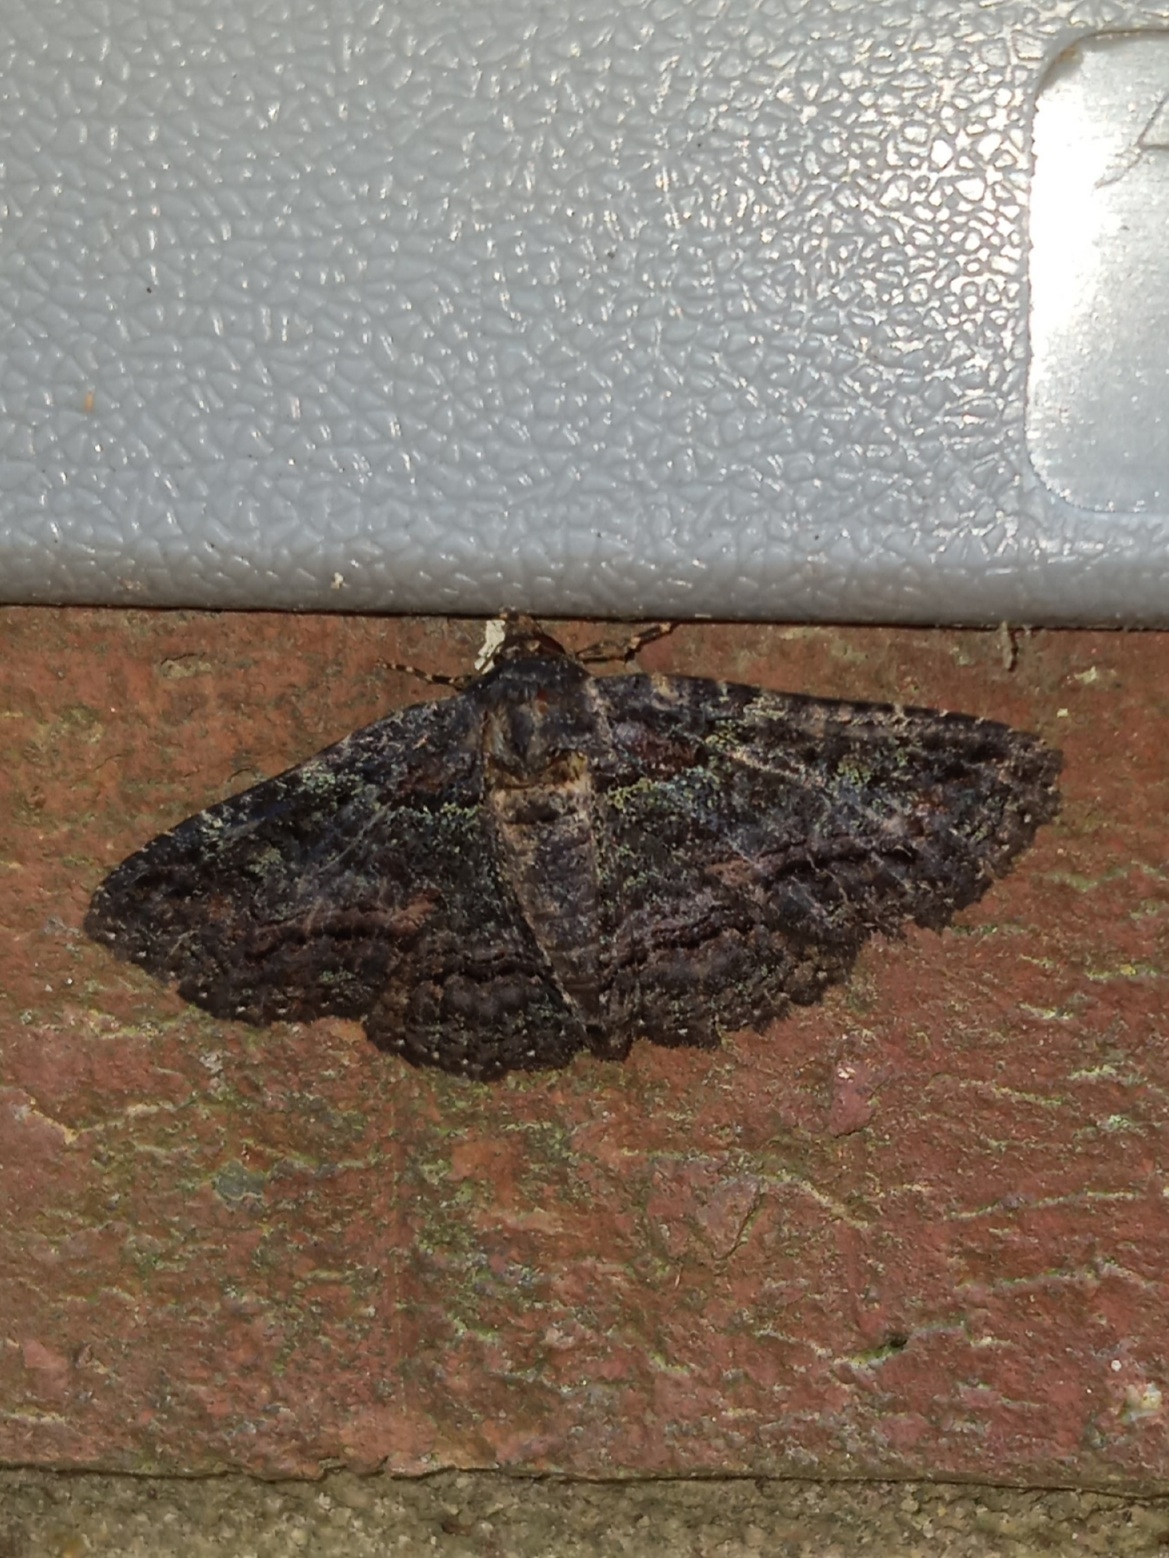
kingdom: Animalia
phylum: Arthropoda
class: Insecta
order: Lepidoptera
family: Erebidae
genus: Zale
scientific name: Zale aeruginosa
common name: Green-dusted zale moth
